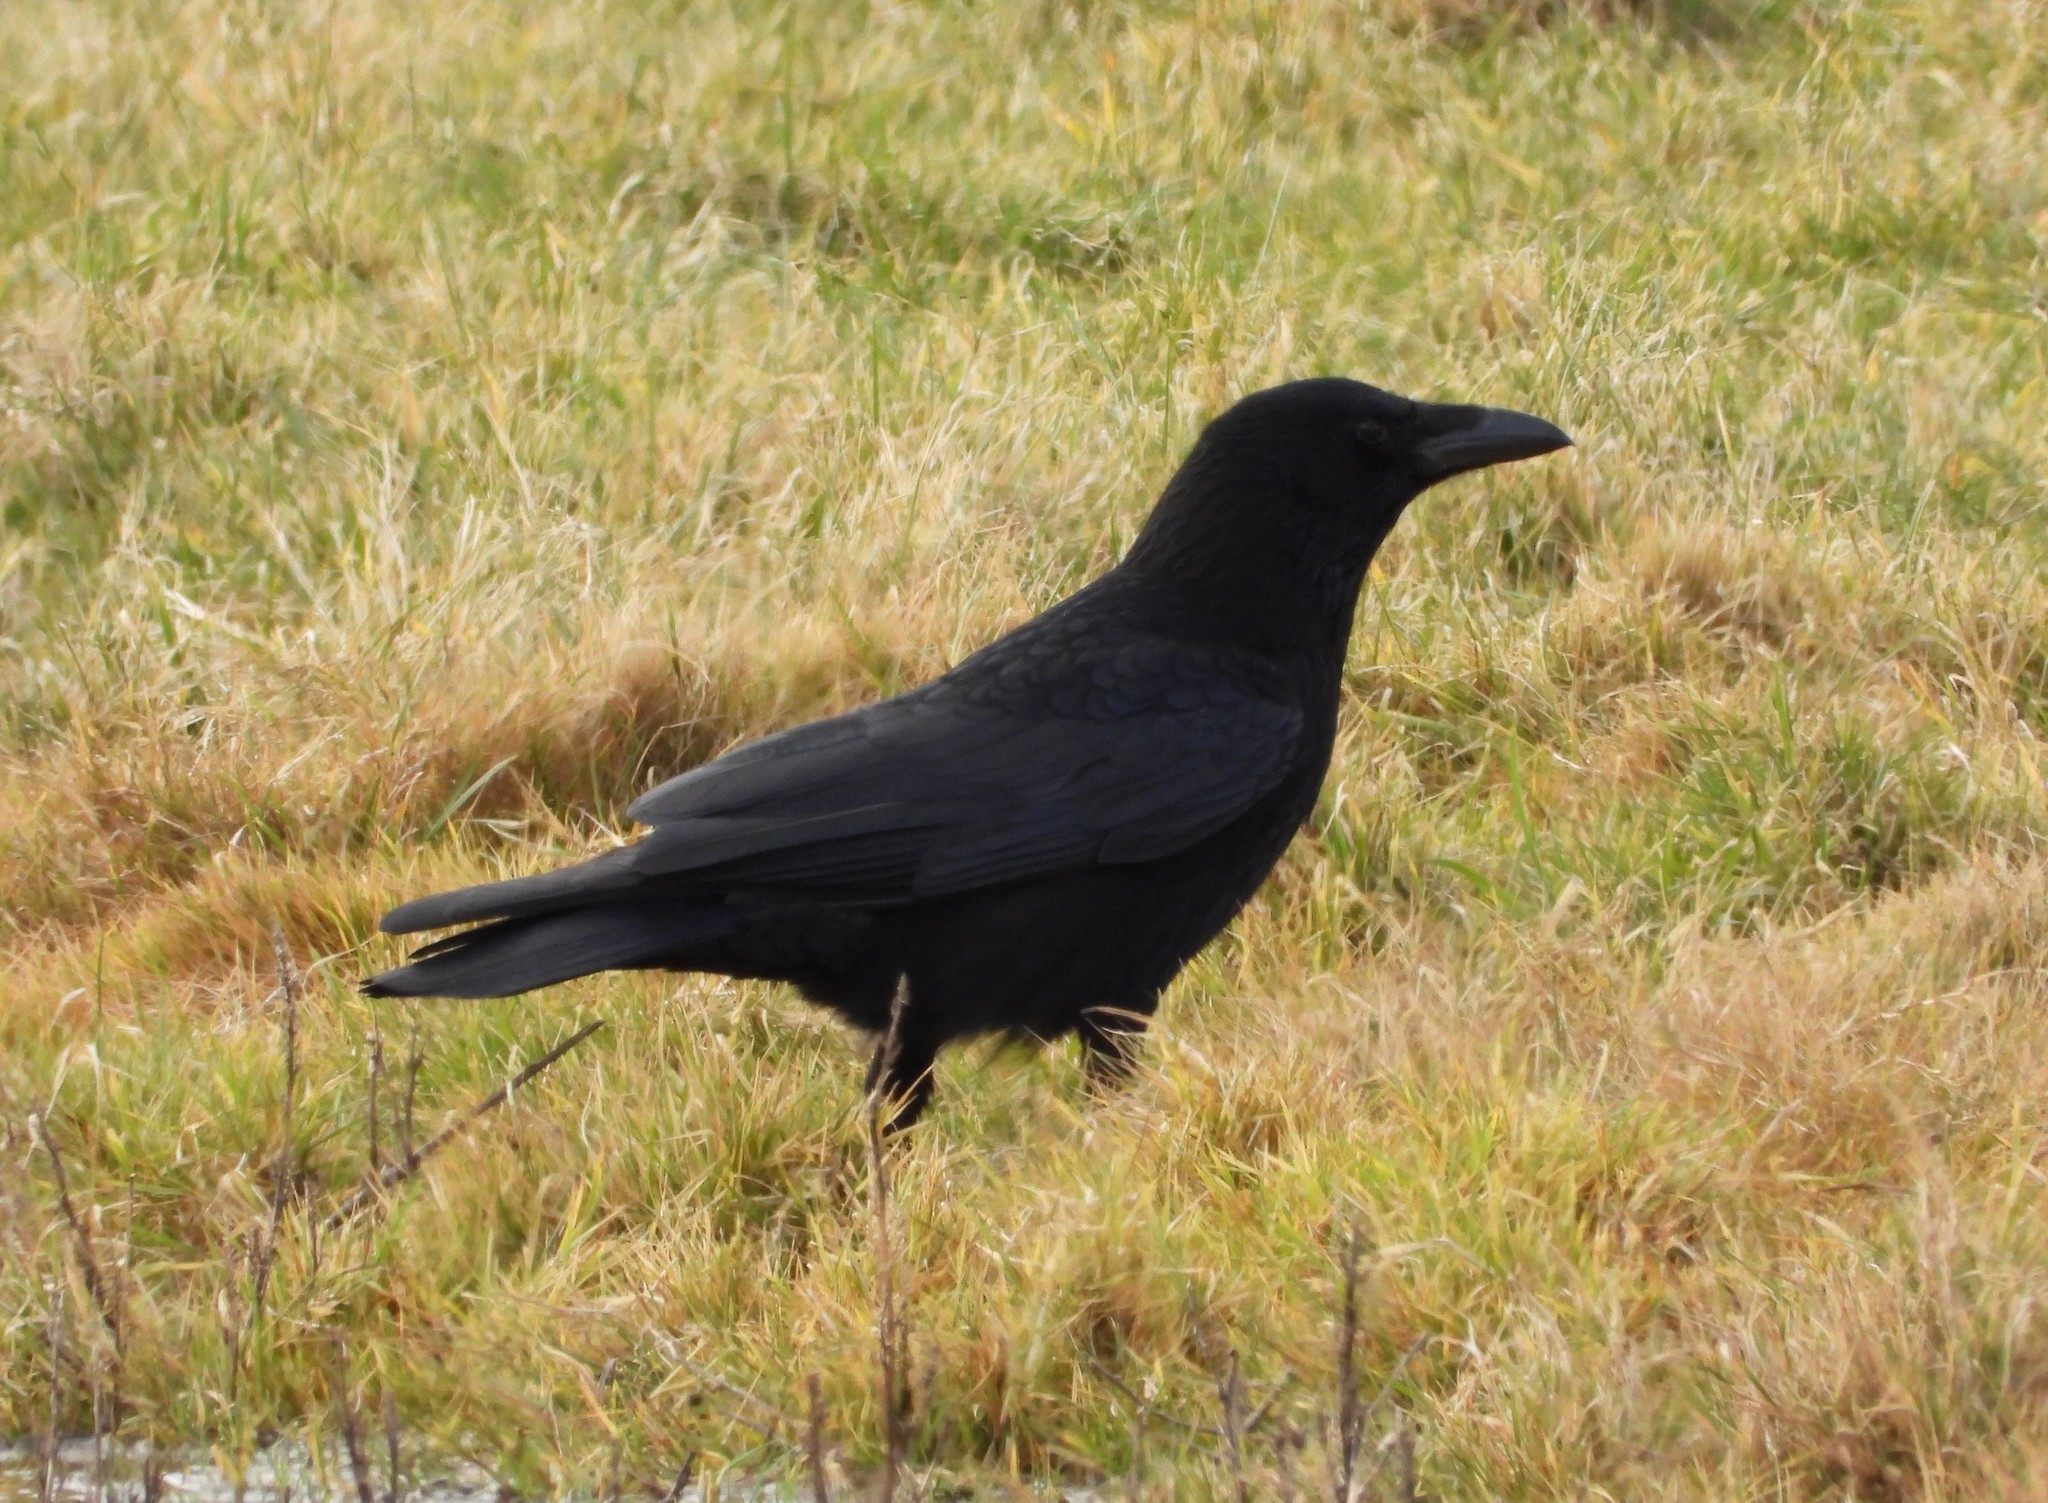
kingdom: Animalia
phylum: Chordata
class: Aves
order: Passeriformes
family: Corvidae
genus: Corvus
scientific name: Corvus corone
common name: Carrion crow
